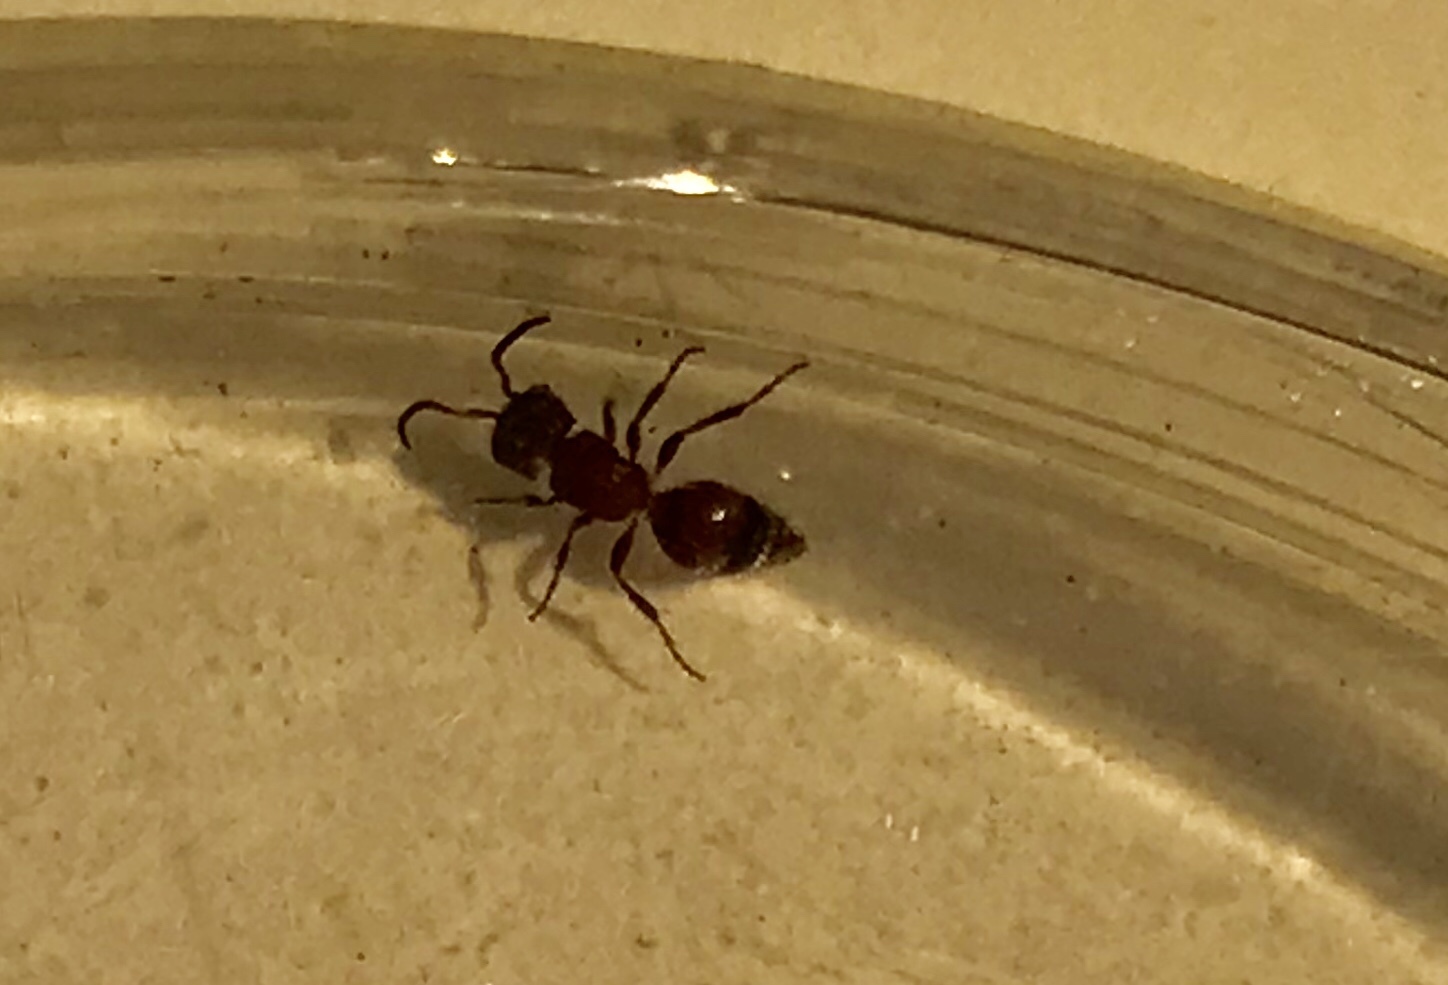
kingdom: Animalia
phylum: Arthropoda
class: Insecta
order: Hymenoptera
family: Mutillidae
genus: Pseudomethoca
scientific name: Pseudomethoca
